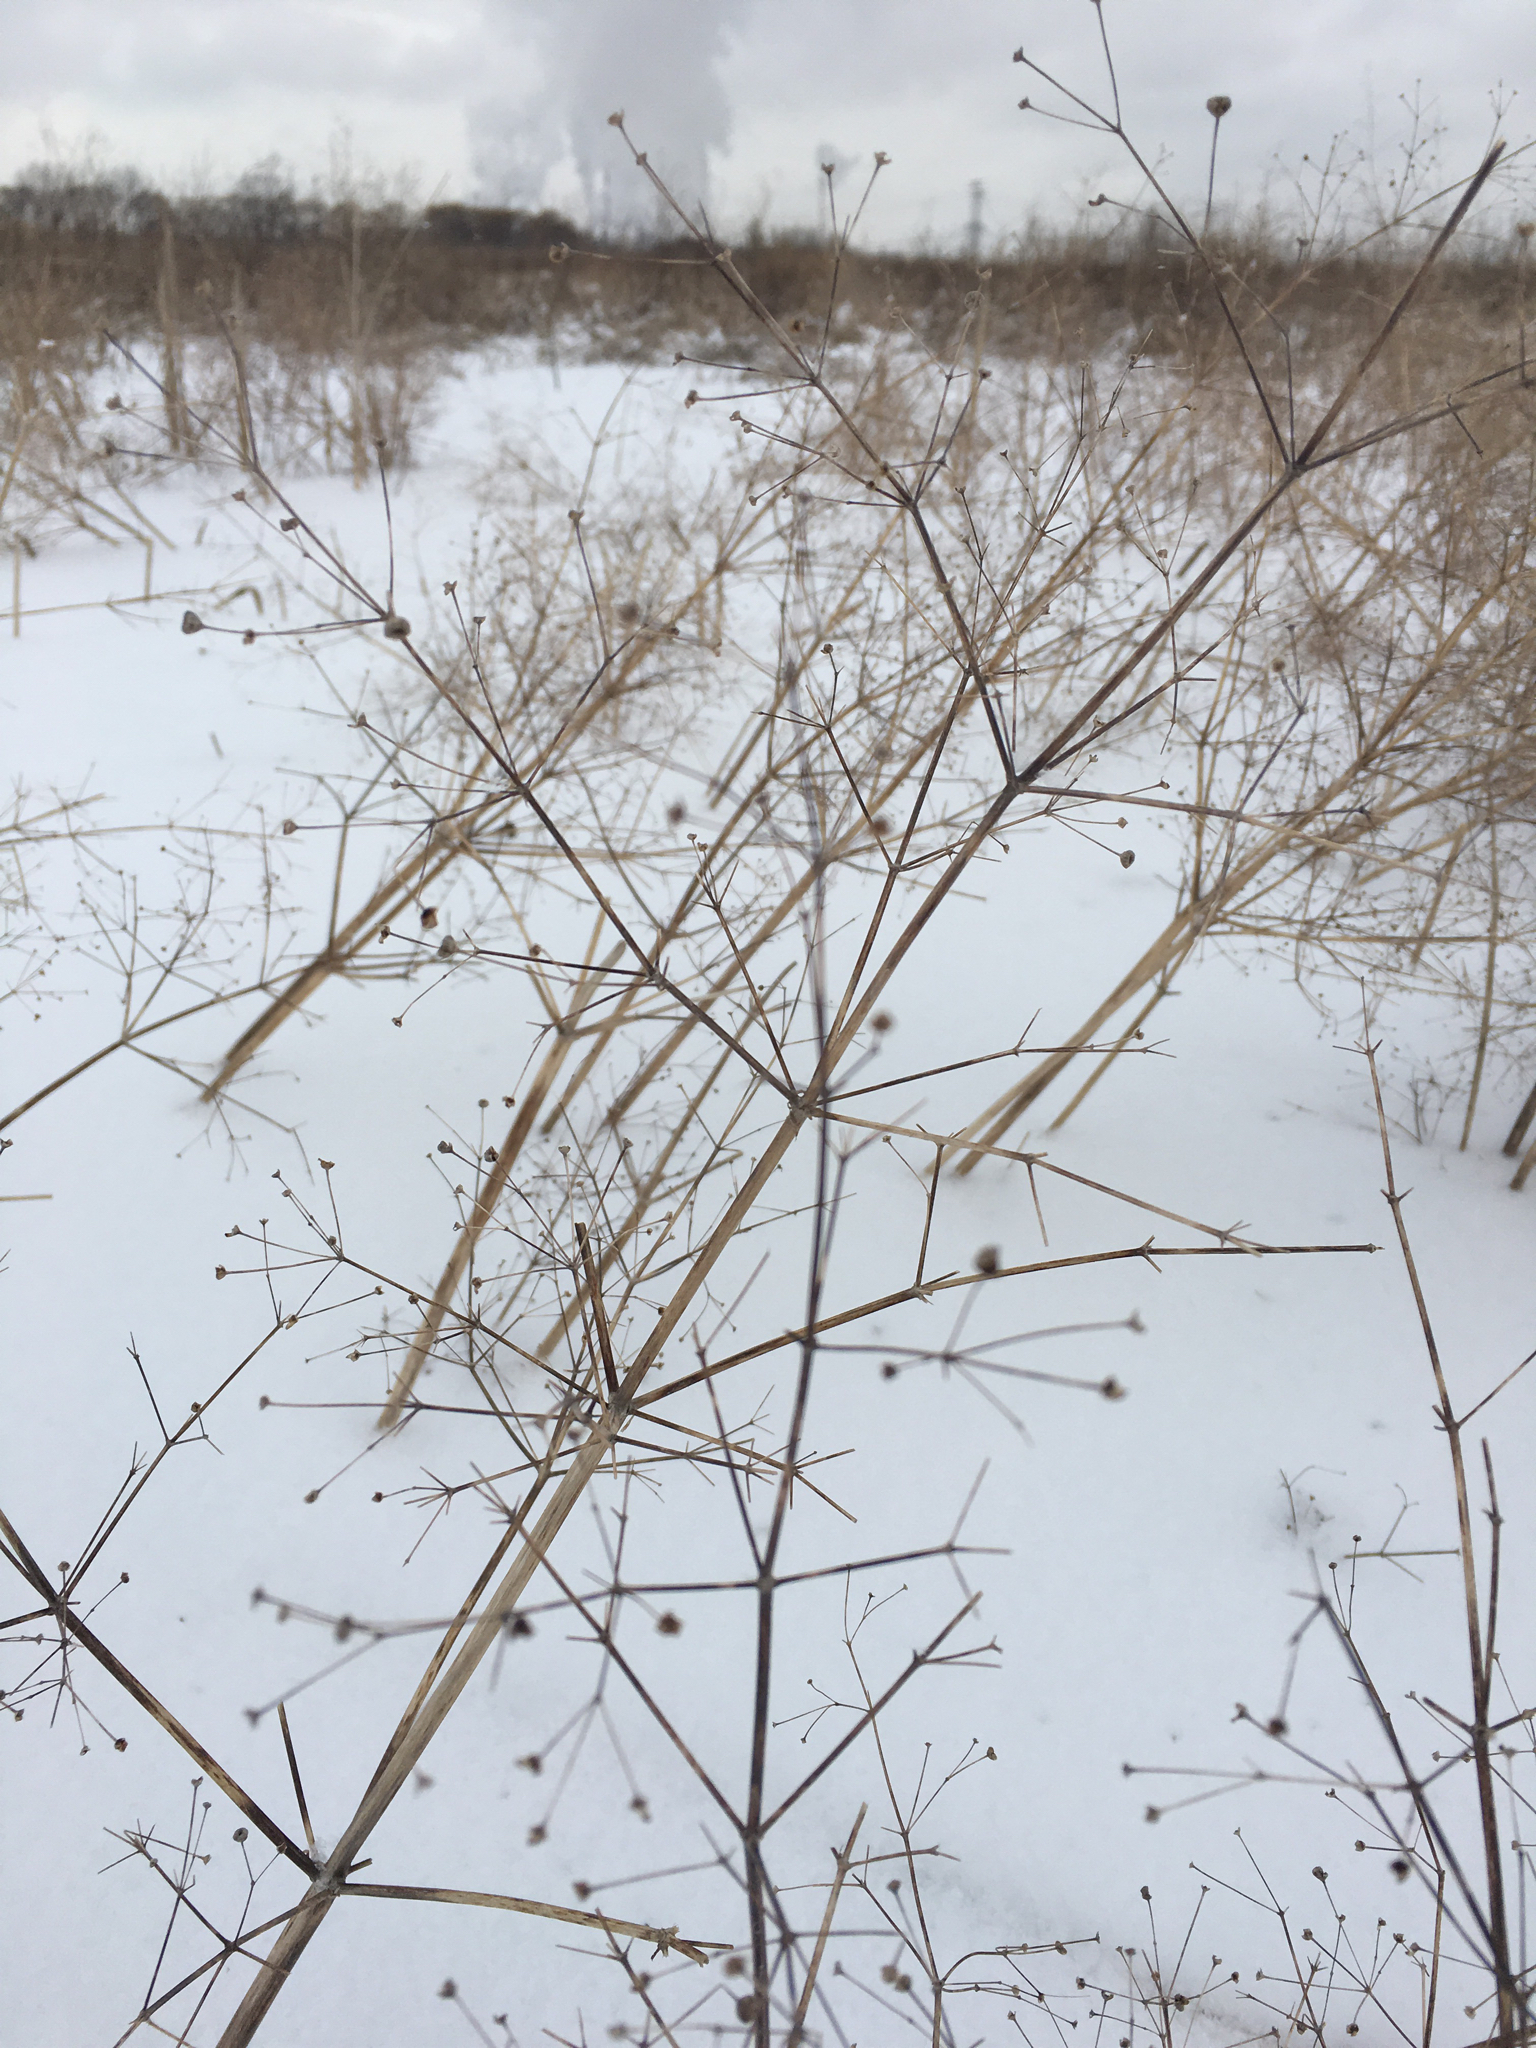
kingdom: Plantae
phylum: Tracheophyta
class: Liliopsida
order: Alismatales
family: Alismataceae
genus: Alisma
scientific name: Alisma
